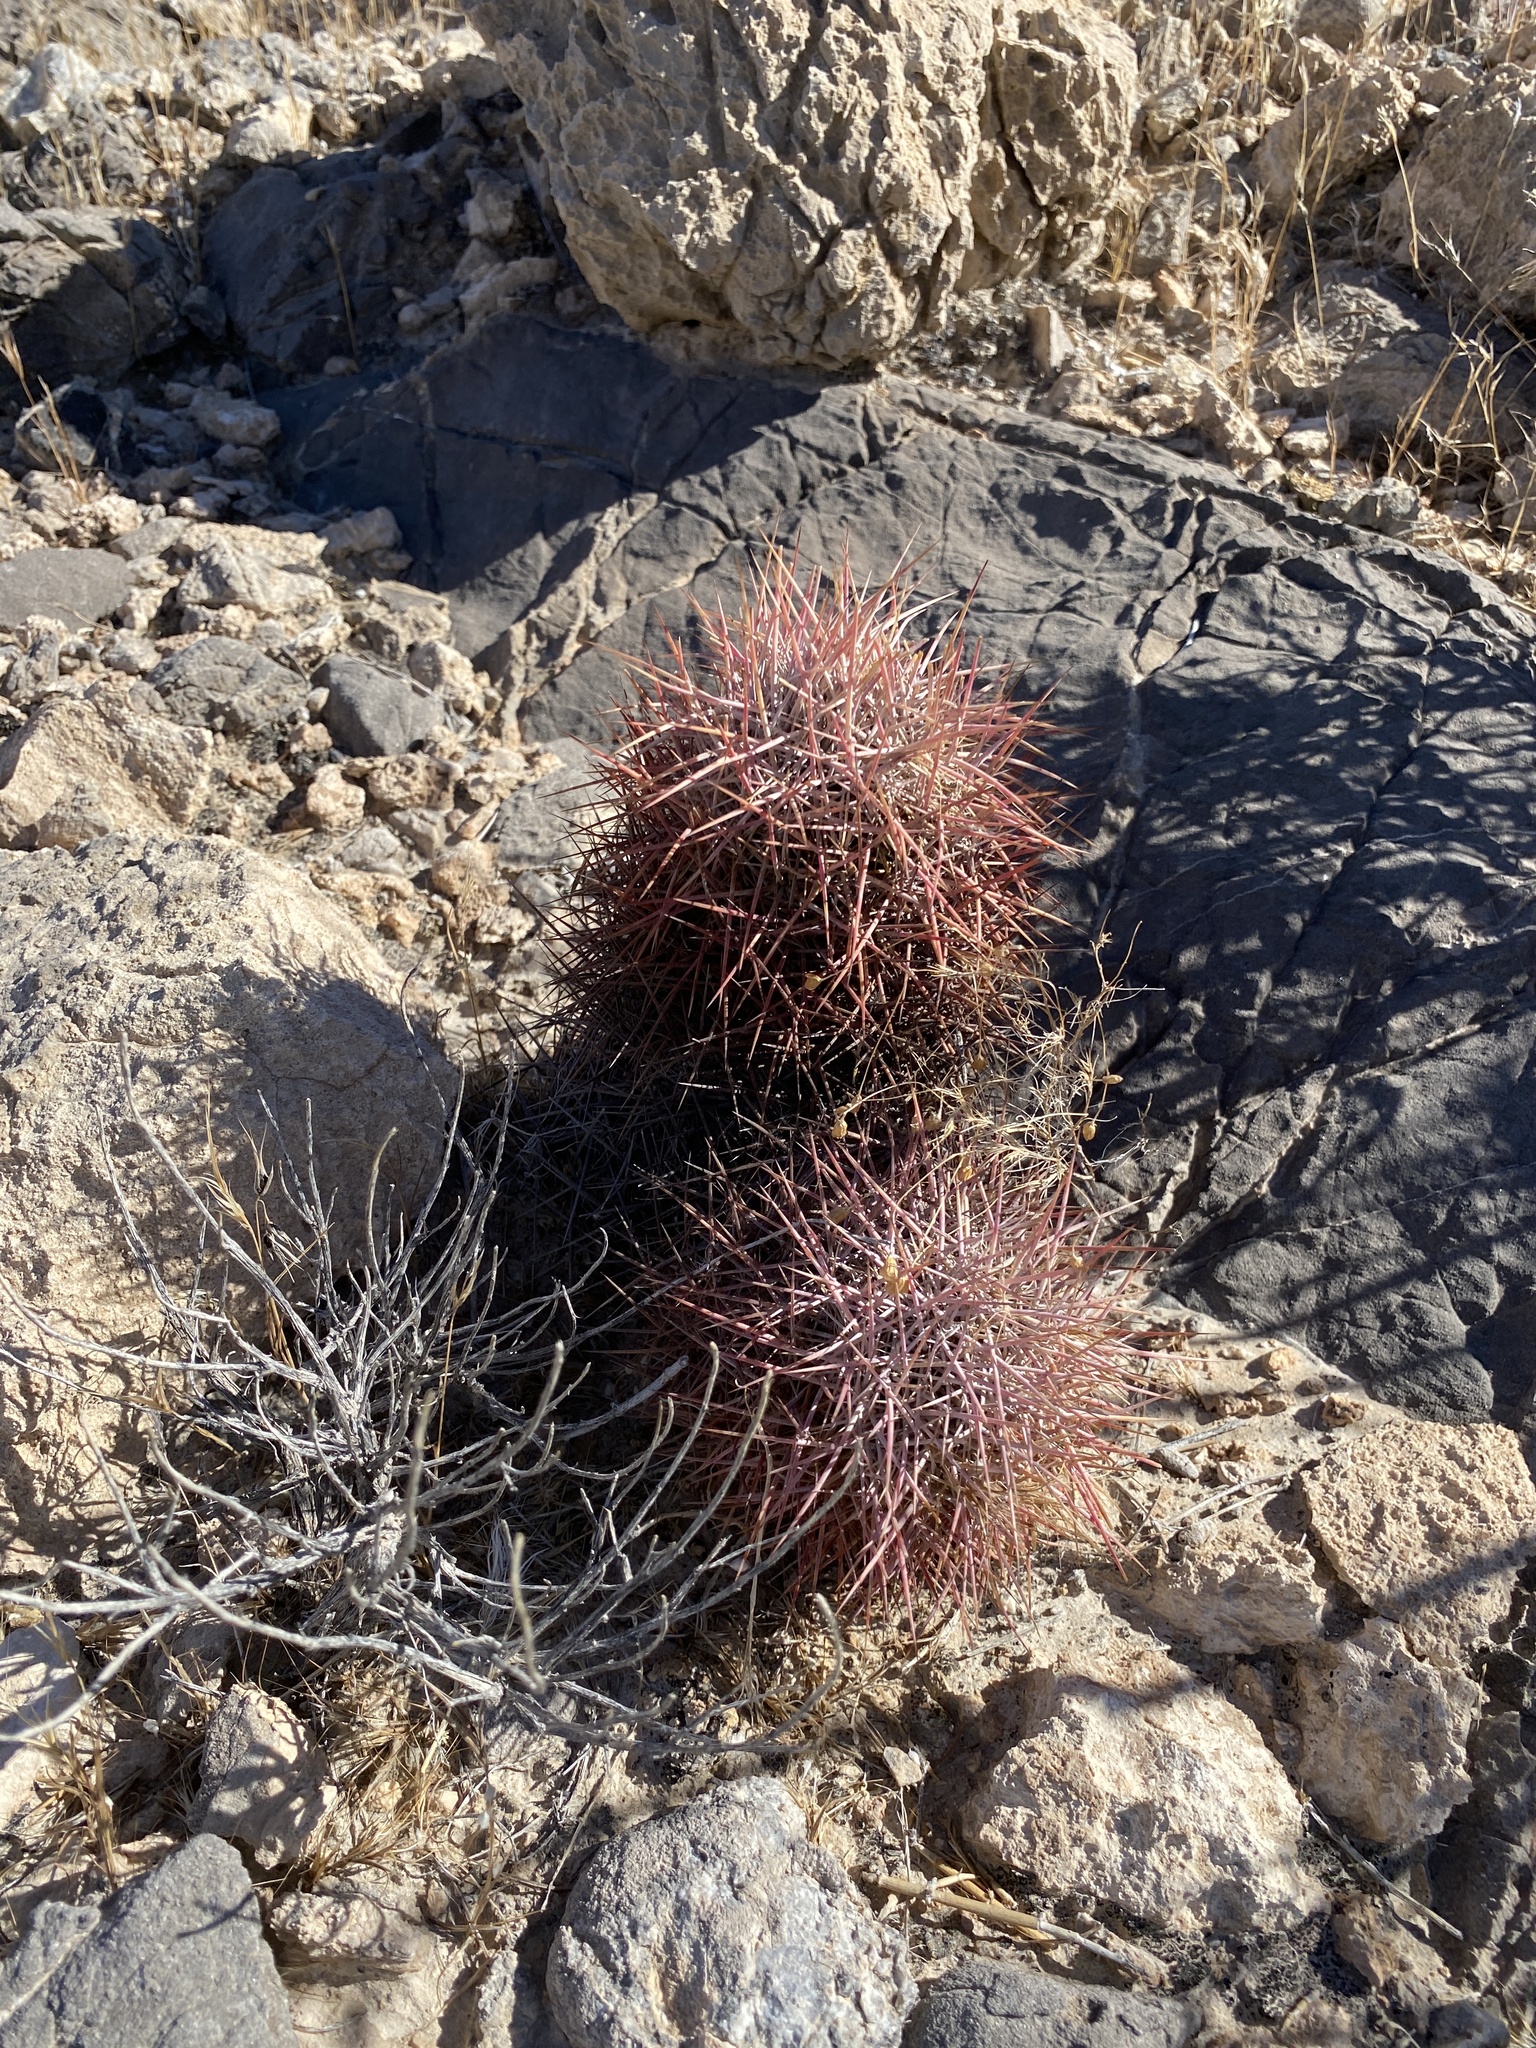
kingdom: Plantae
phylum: Tracheophyta
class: Magnoliopsida
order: Caryophyllales
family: Cactaceae
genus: Sclerocactus
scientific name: Sclerocactus johnsonii
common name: Eight-spine fishhook cactus
